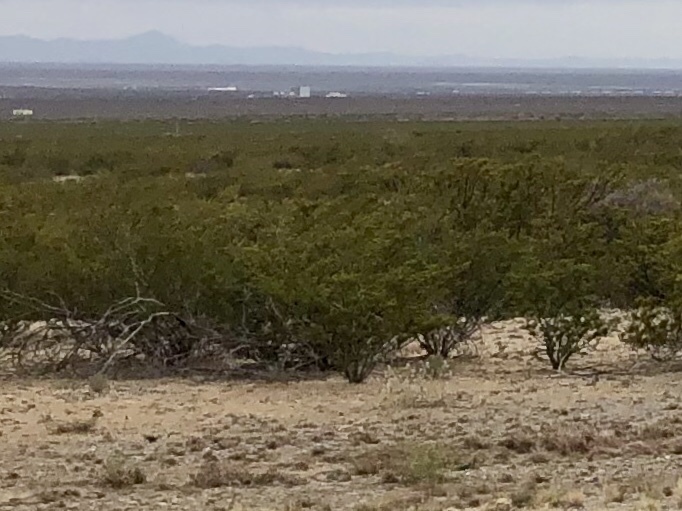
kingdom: Plantae
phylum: Tracheophyta
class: Magnoliopsida
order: Zygophyllales
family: Zygophyllaceae
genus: Larrea
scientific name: Larrea tridentata
